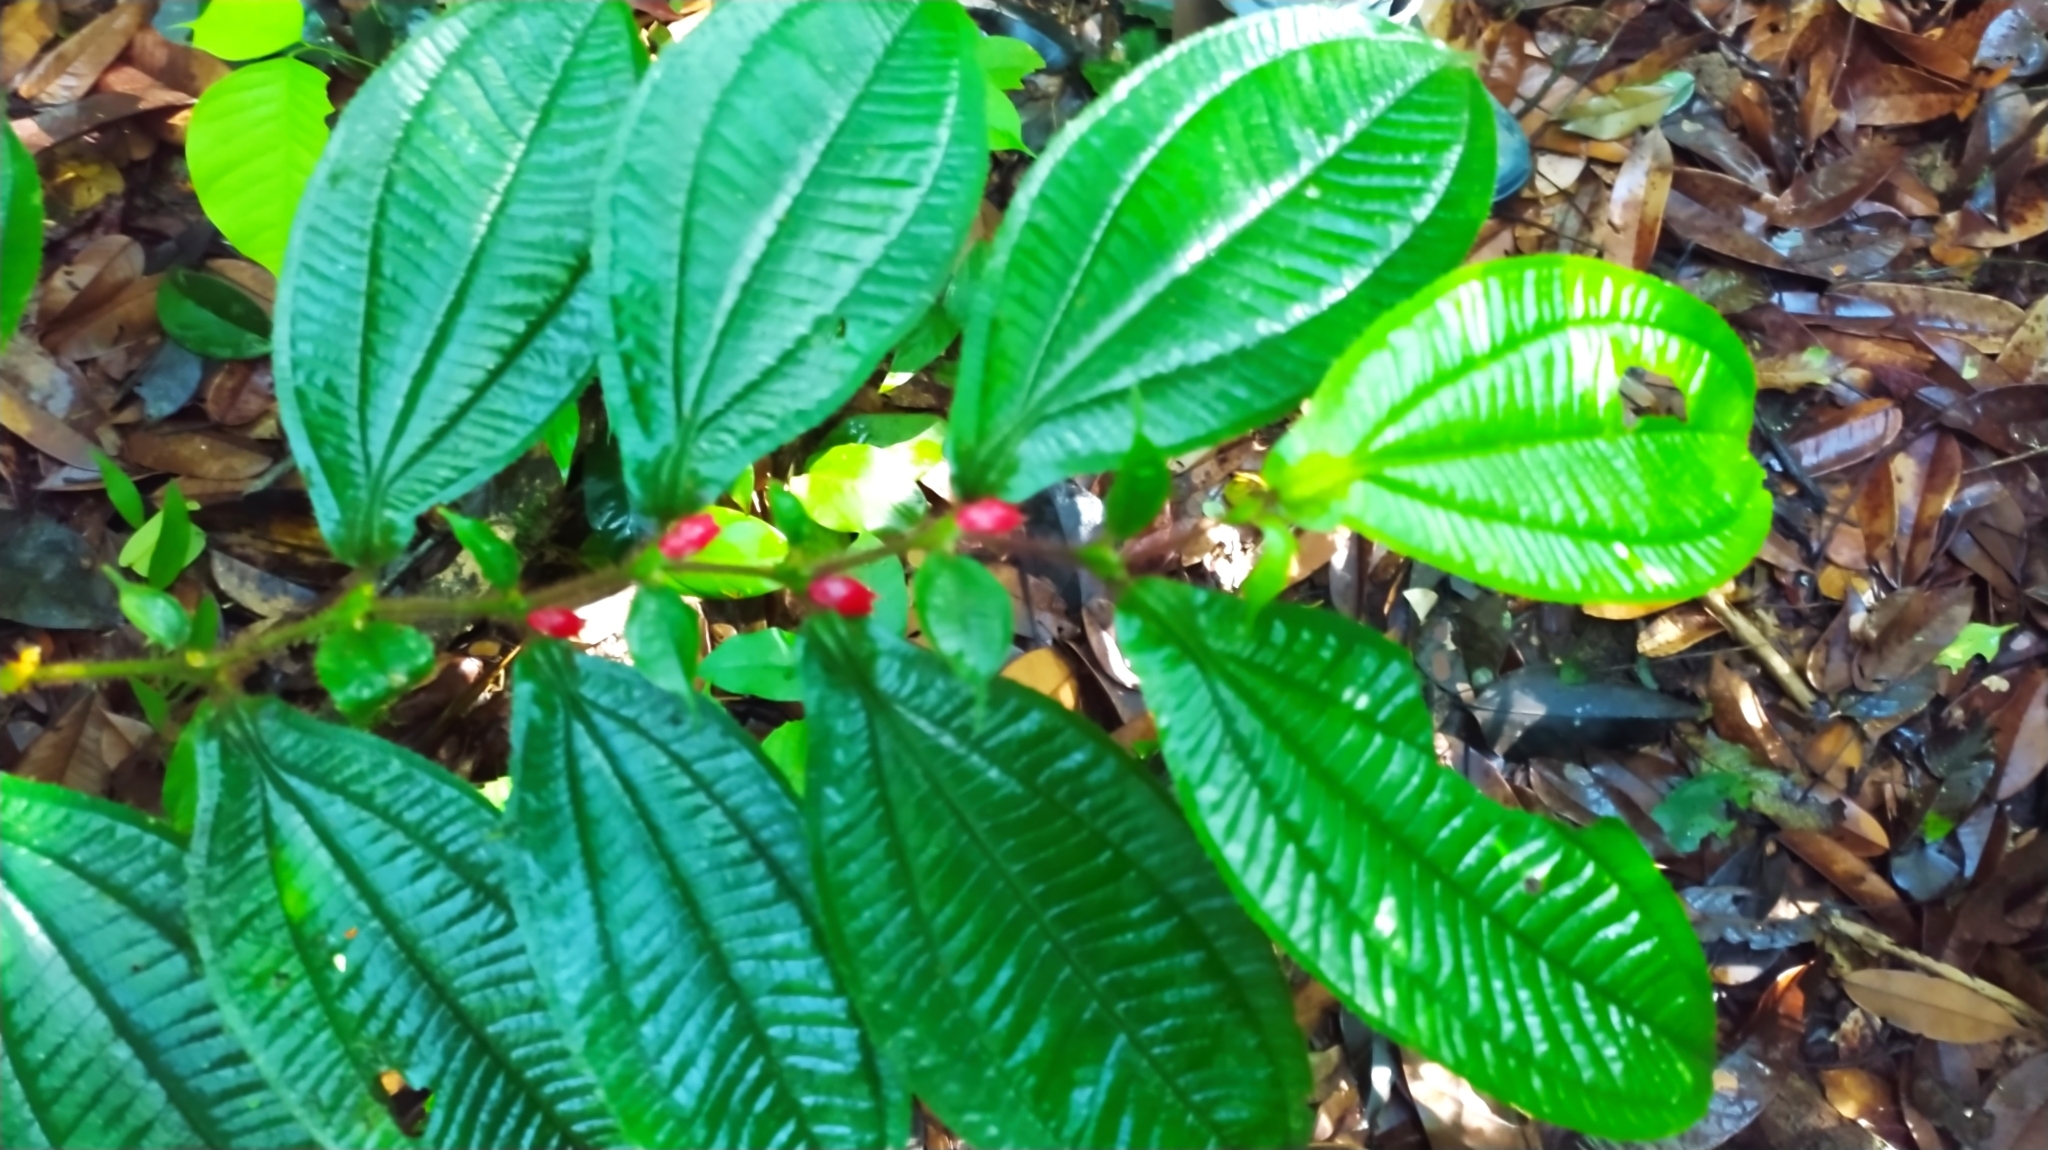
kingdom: Plantae
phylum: Tracheophyta
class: Magnoliopsida
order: Myrtales
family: Melastomataceae
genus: Miconia
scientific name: Miconia mayeta
